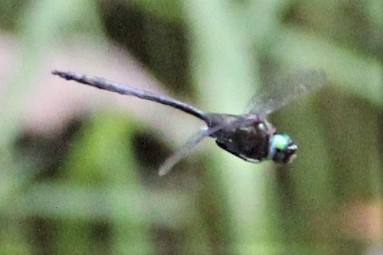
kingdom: Animalia
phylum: Arthropoda
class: Insecta
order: Odonata
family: Corduliidae
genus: Somatochlora
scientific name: Somatochlora williamsoni
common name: Williamson's emerald
